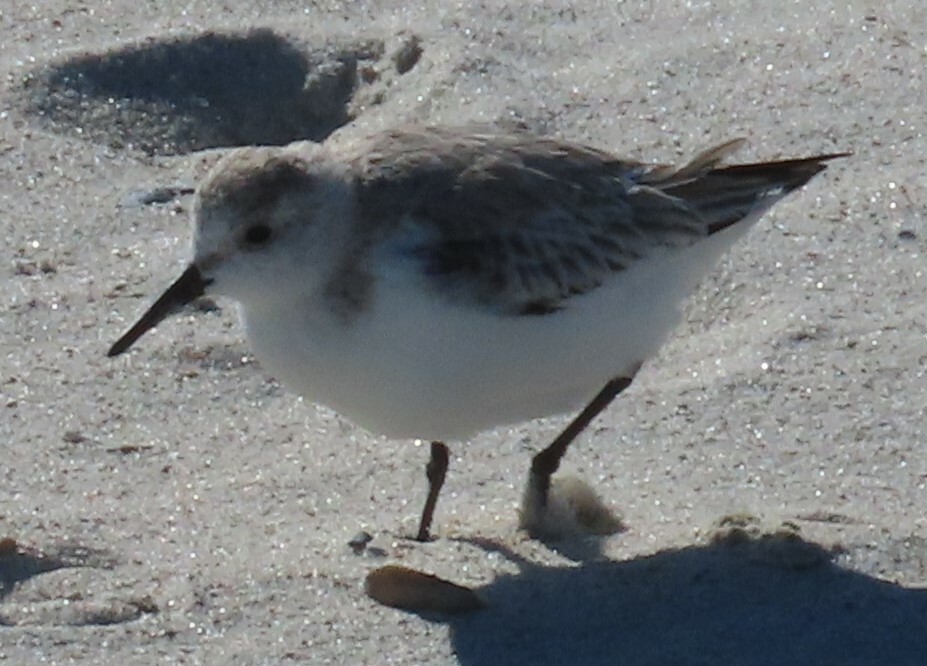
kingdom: Animalia
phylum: Chordata
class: Aves
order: Charadriiformes
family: Scolopacidae
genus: Calidris
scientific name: Calidris alba
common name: Sanderling
